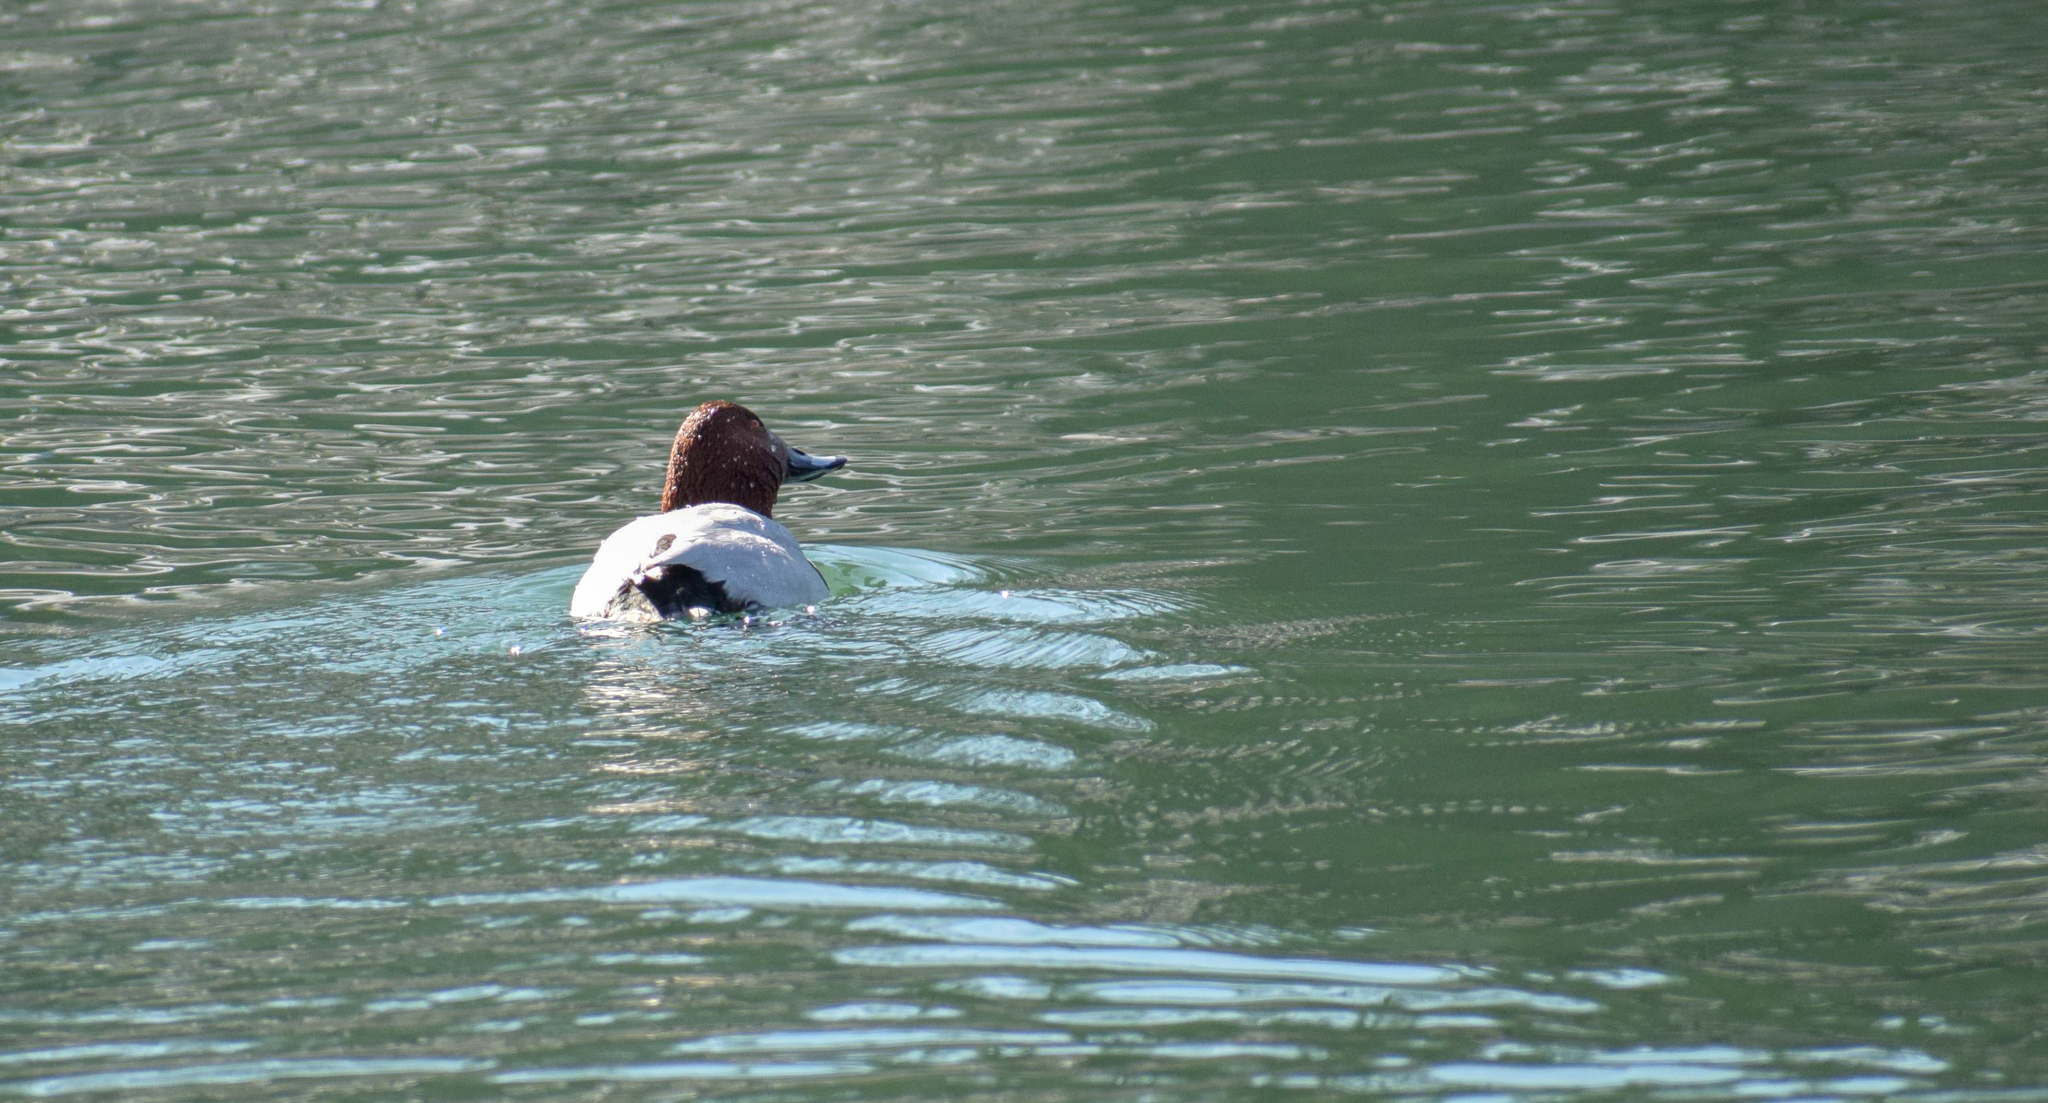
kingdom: Animalia
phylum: Chordata
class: Aves
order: Anseriformes
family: Anatidae
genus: Aythya
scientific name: Aythya ferina
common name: Common pochard
